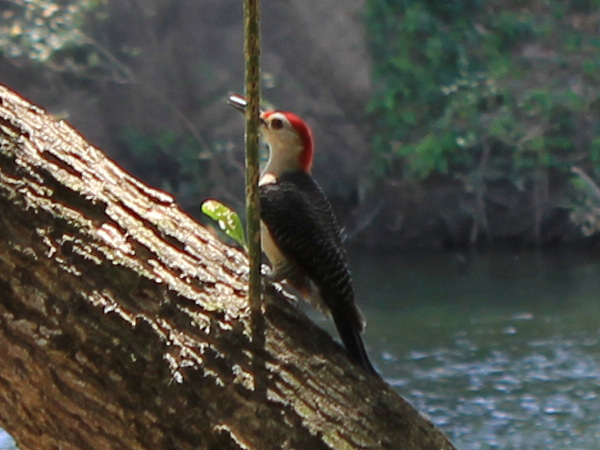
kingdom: Animalia
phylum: Chordata
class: Aves
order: Piciformes
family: Picidae
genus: Melanerpes
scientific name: Melanerpes aurifrons
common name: Golden-fronted woodpecker
